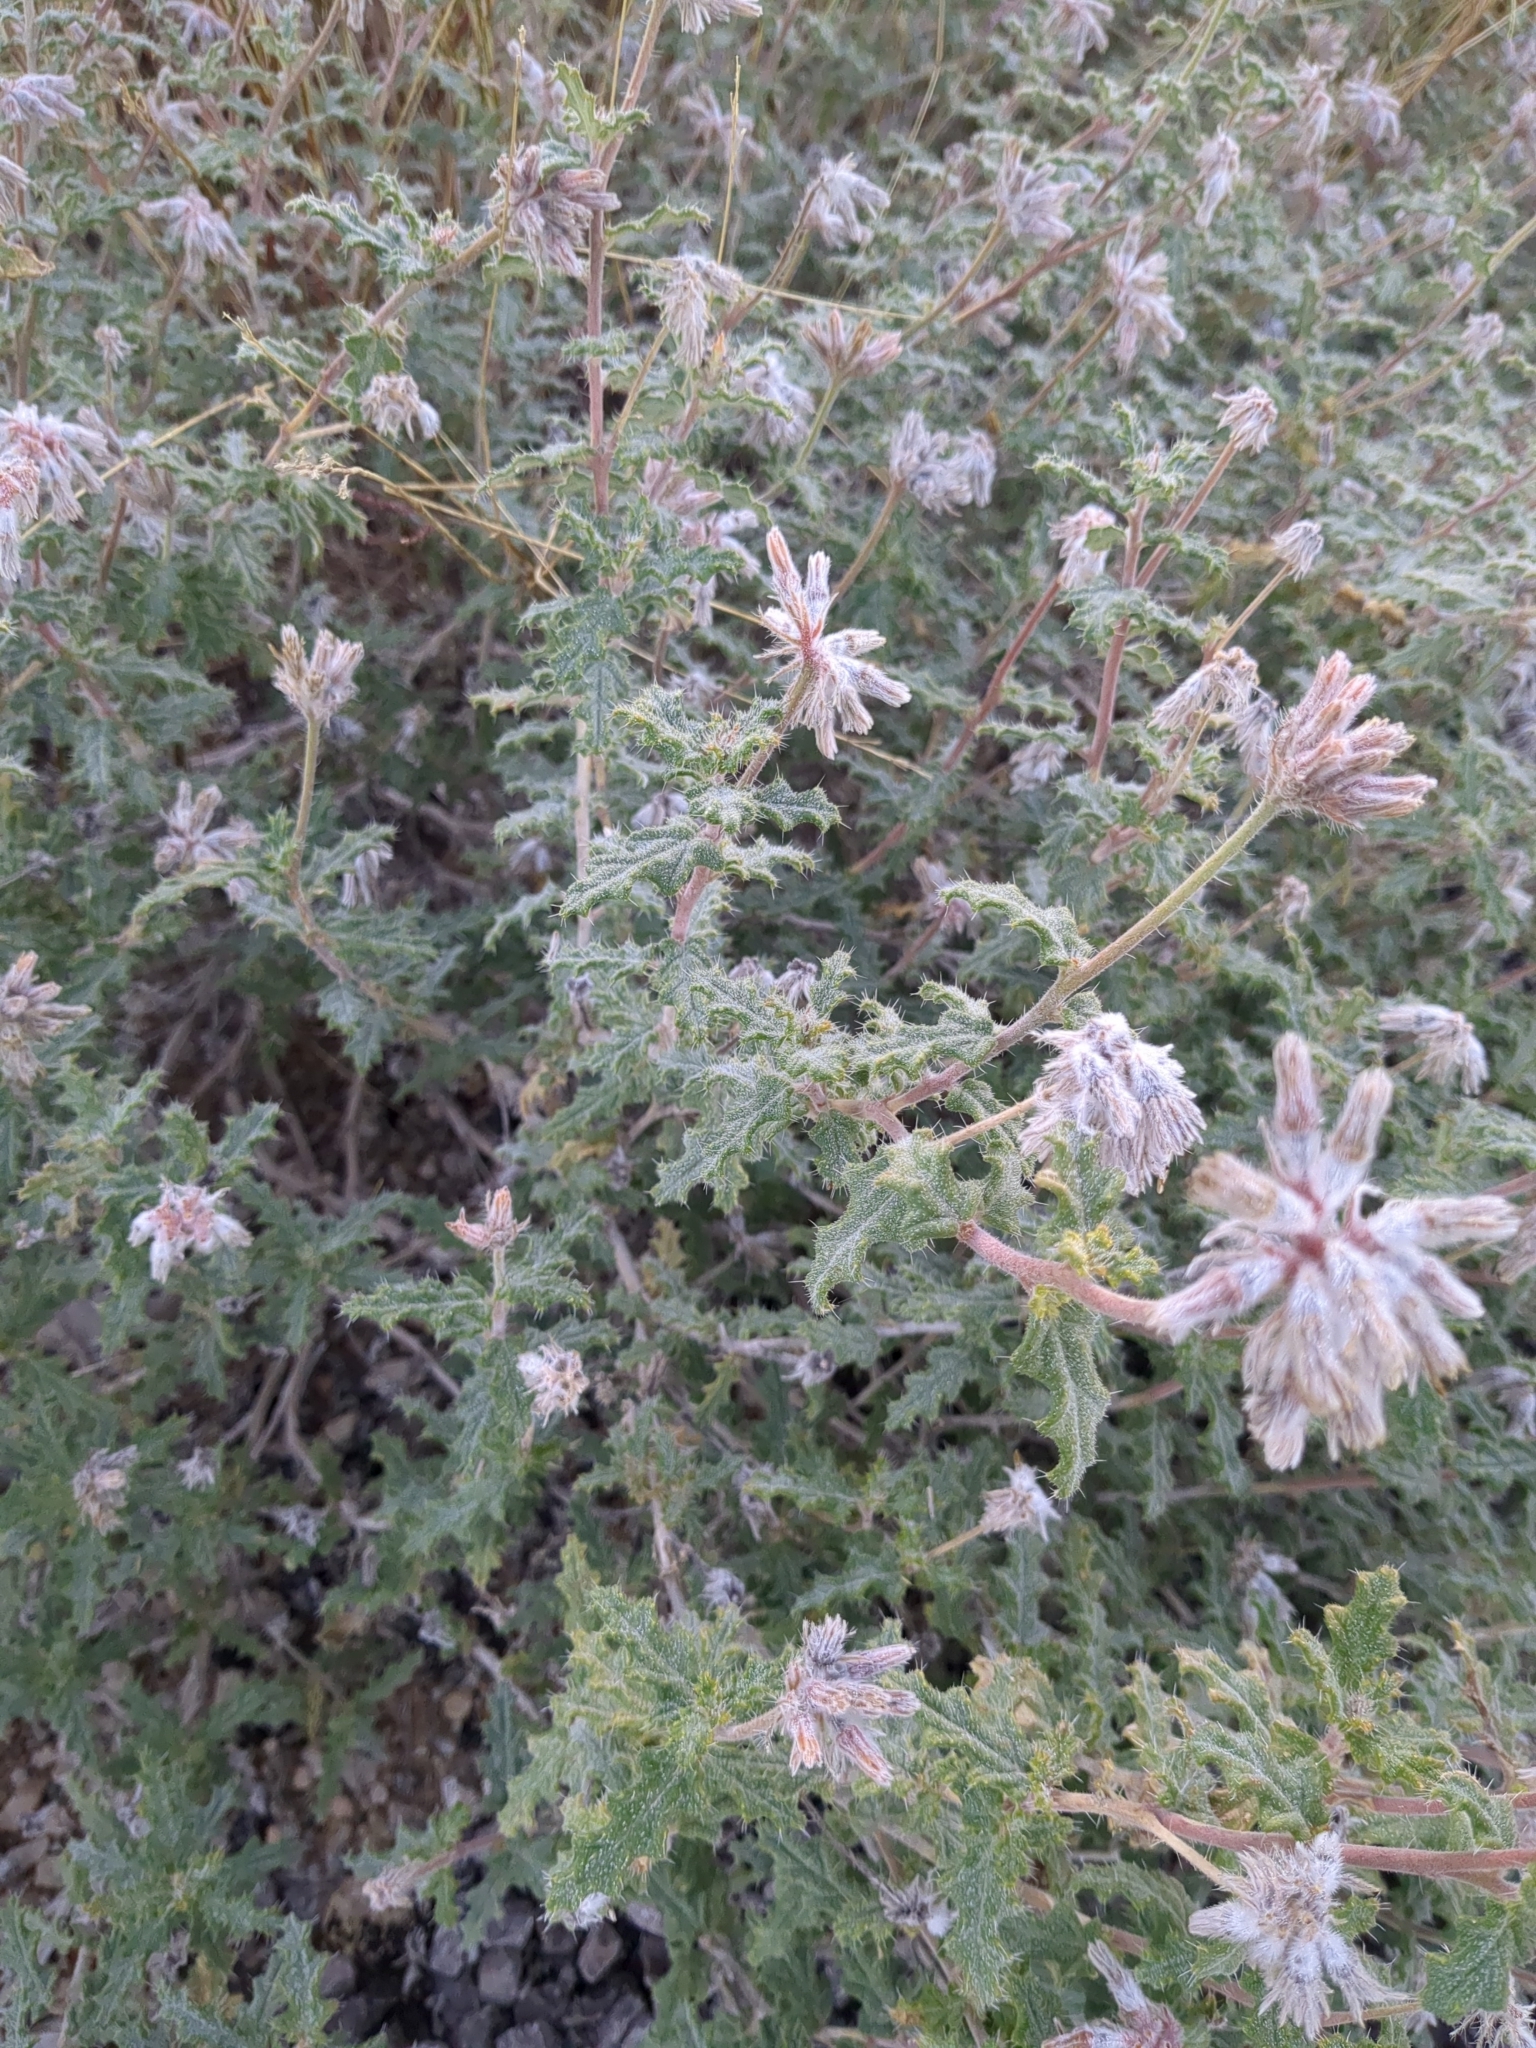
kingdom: Plantae
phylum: Tracheophyta
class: Magnoliopsida
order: Cornales
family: Loasaceae
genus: Cevallia
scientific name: Cevallia sinuata
